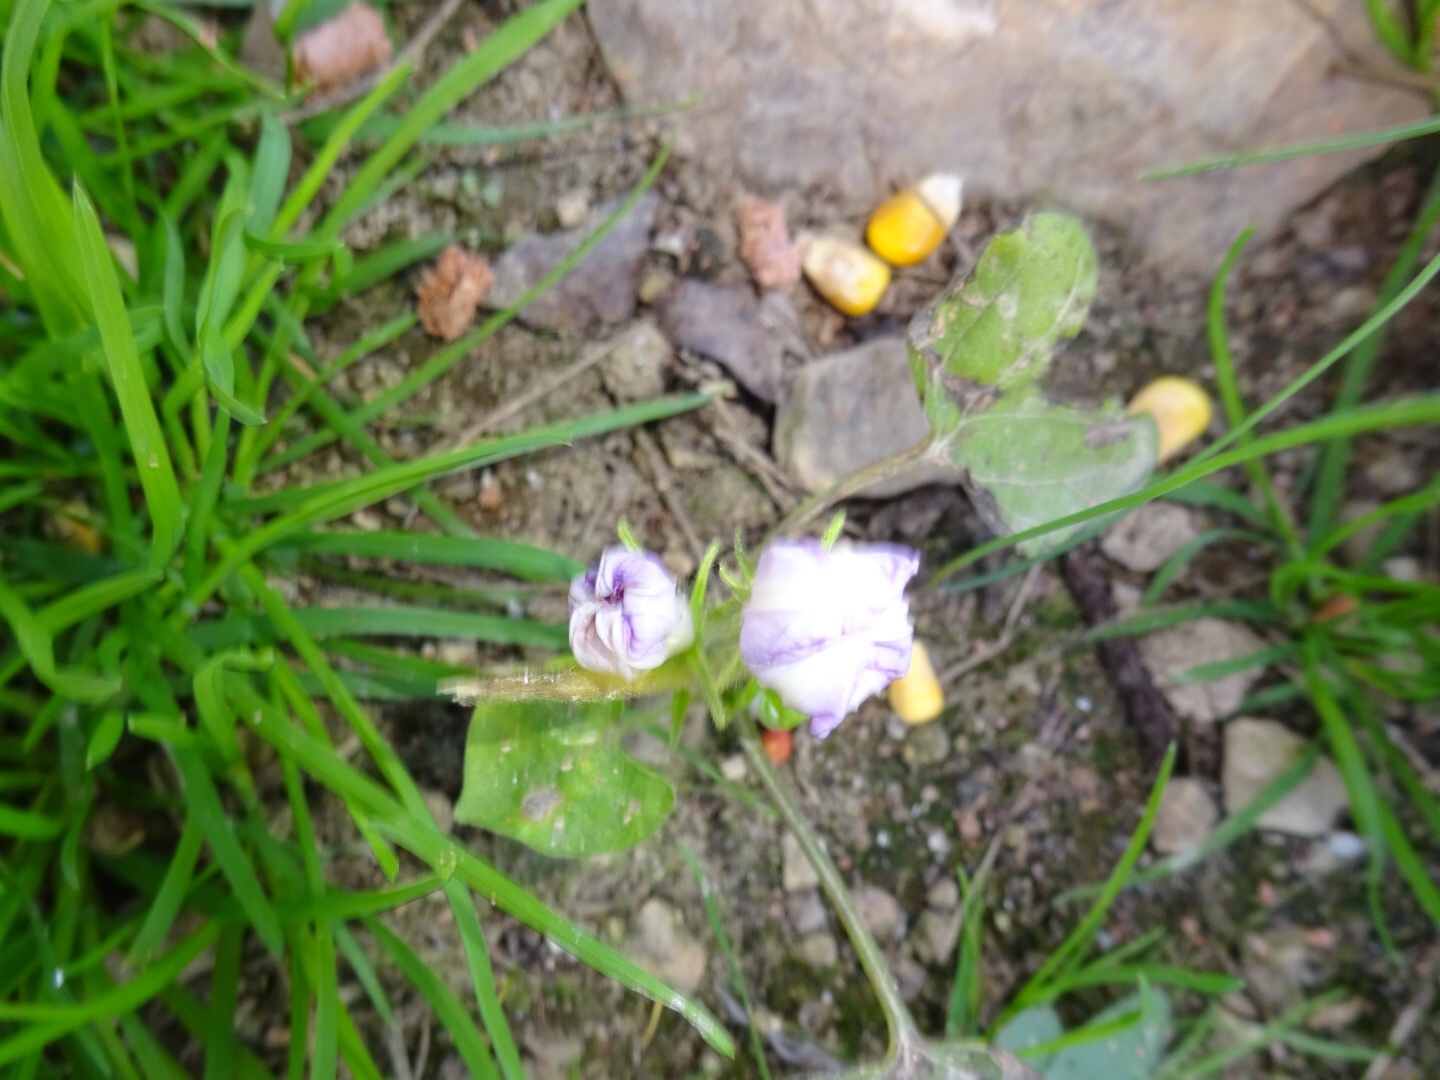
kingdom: Plantae
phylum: Tracheophyta
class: Magnoliopsida
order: Solanales
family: Convolvulaceae
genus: Ipomoea
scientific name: Ipomoea hederacea
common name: Ivy-leaved morning-glory
